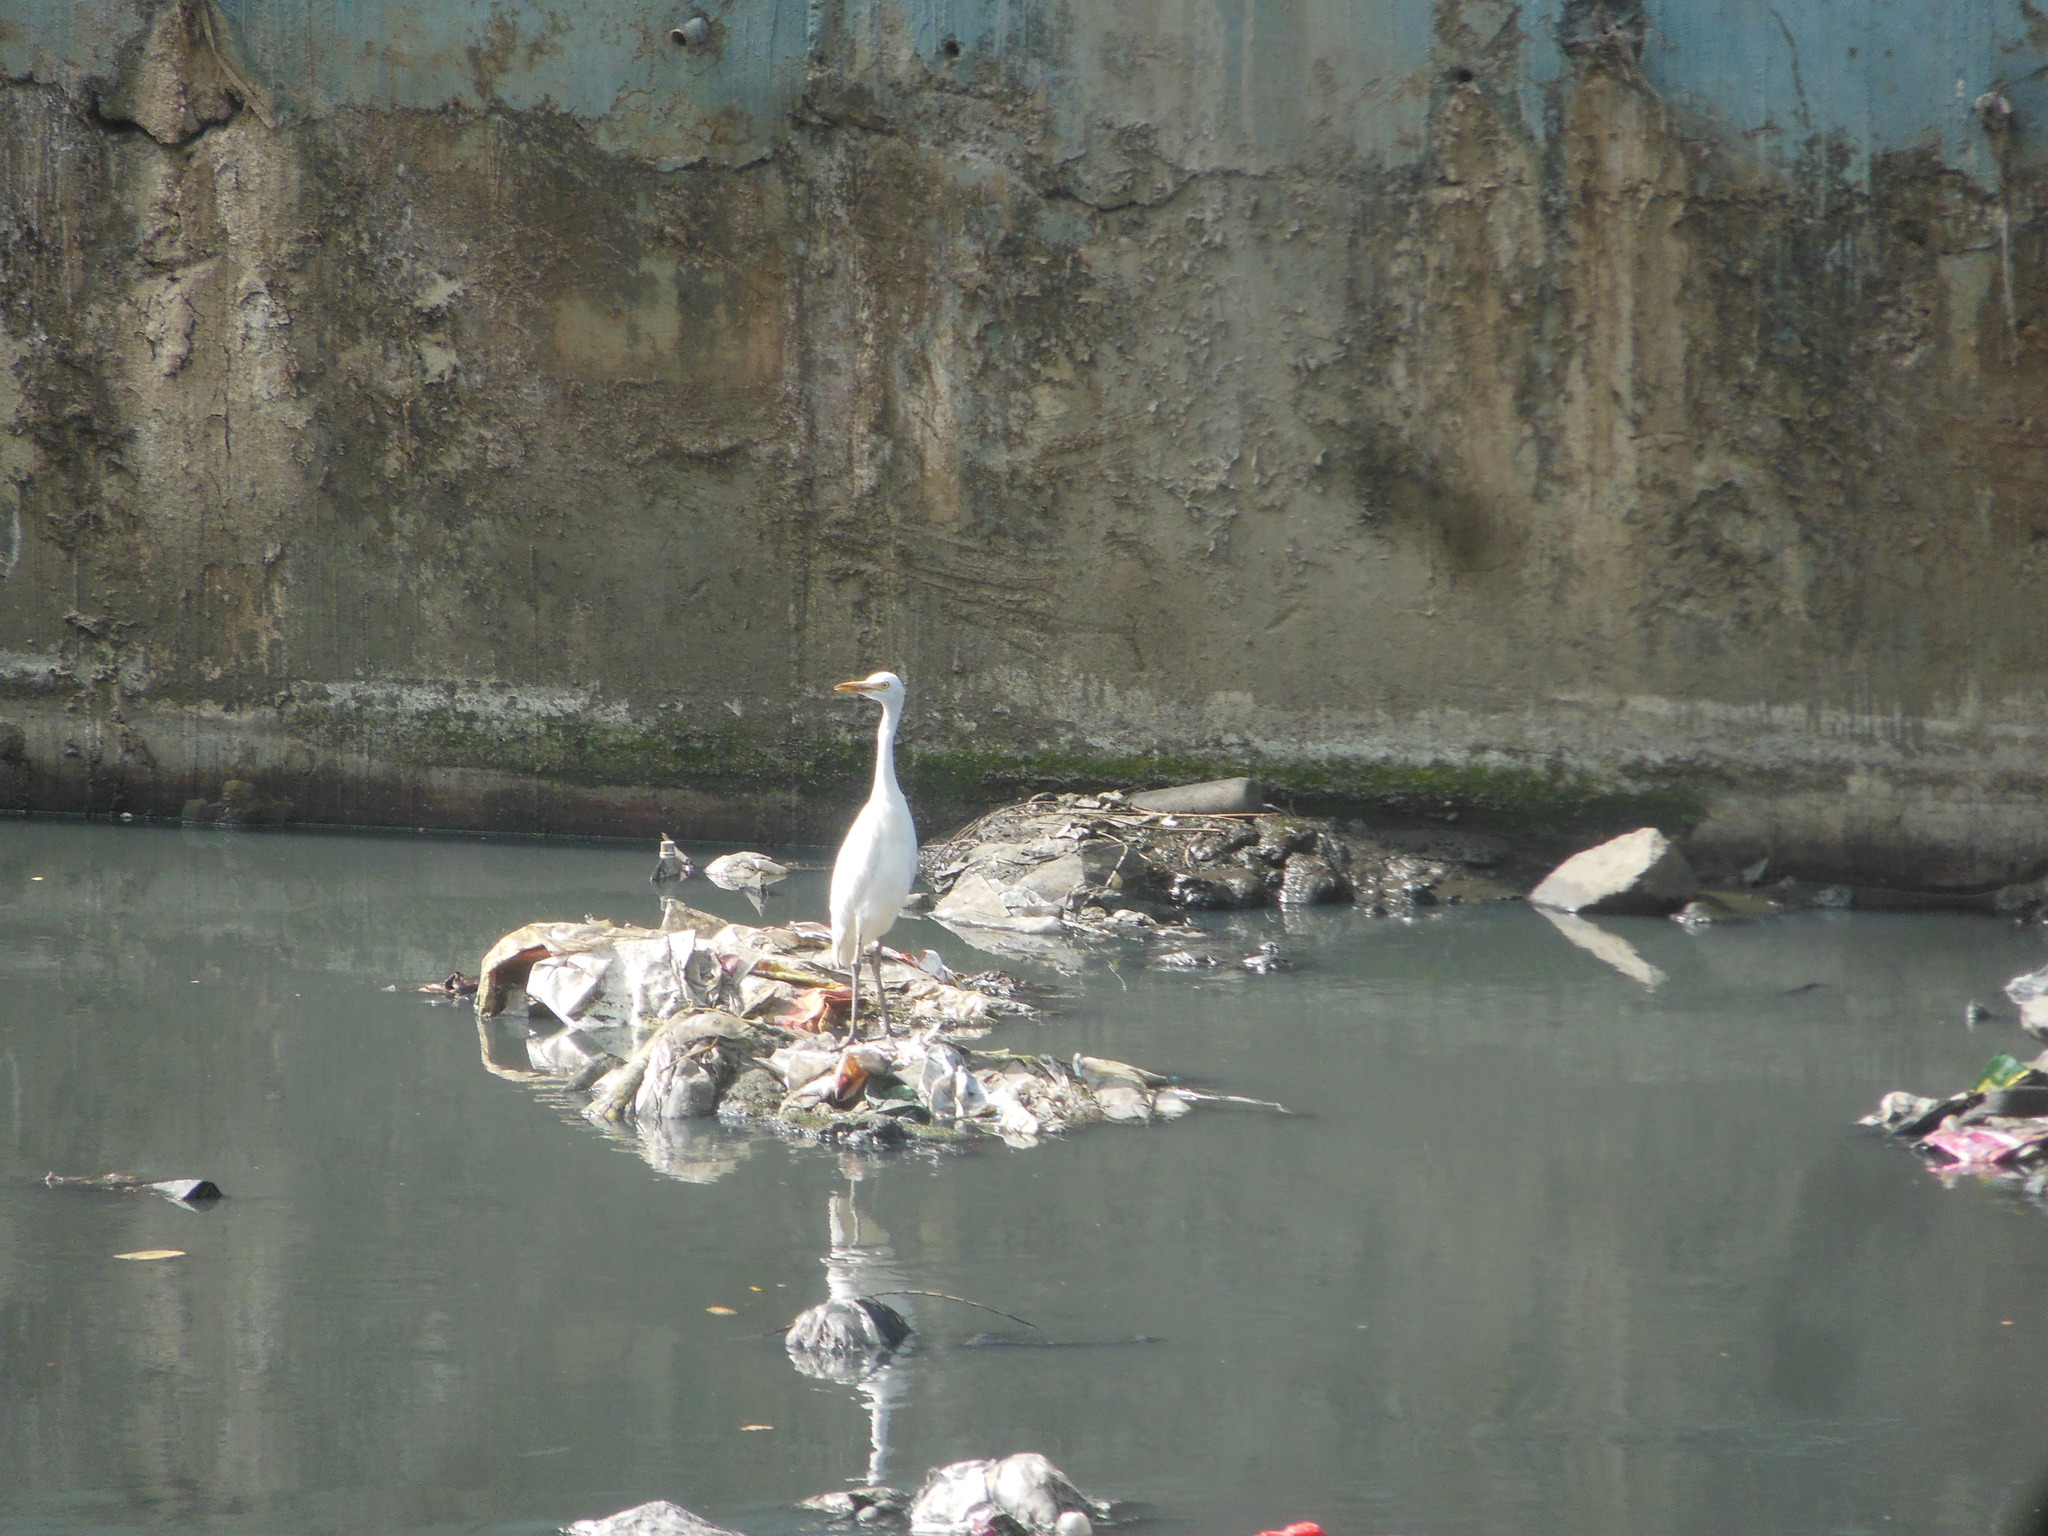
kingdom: Animalia
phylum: Chordata
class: Aves
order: Pelecaniformes
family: Ardeidae
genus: Bubulcus
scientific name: Bubulcus coromandus
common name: Eastern cattle egret
